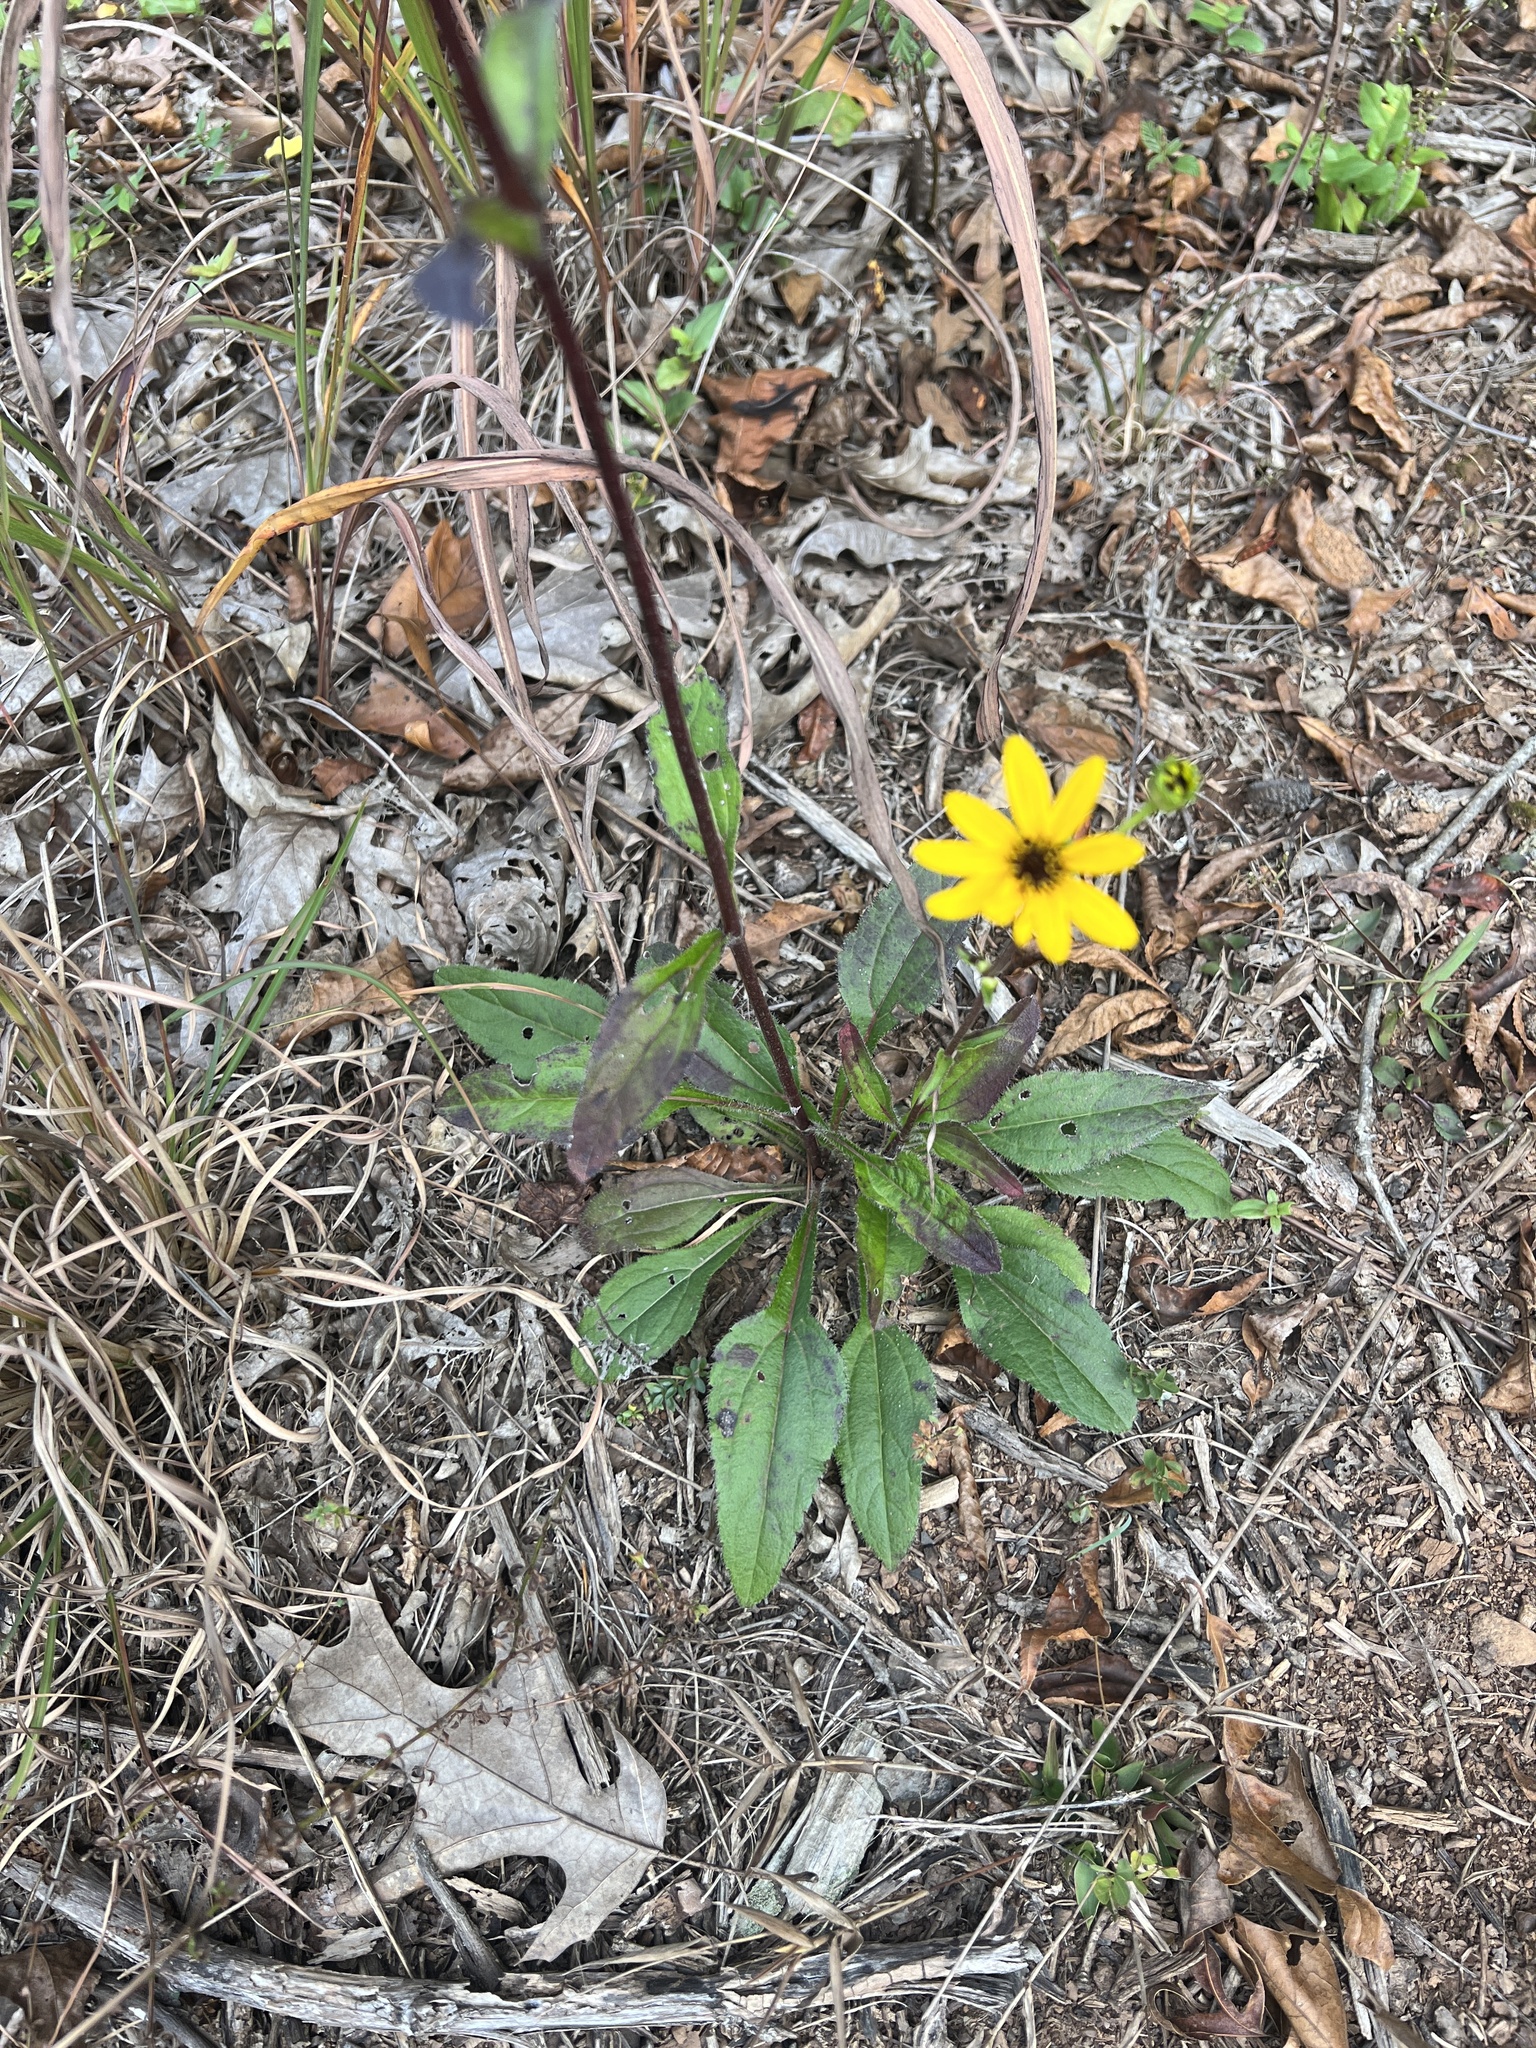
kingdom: Plantae
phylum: Tracheophyta
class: Magnoliopsida
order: Asterales
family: Asteraceae
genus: Helianthus
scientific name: Helianthus atrorubens
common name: Dark-eyed sunflower
